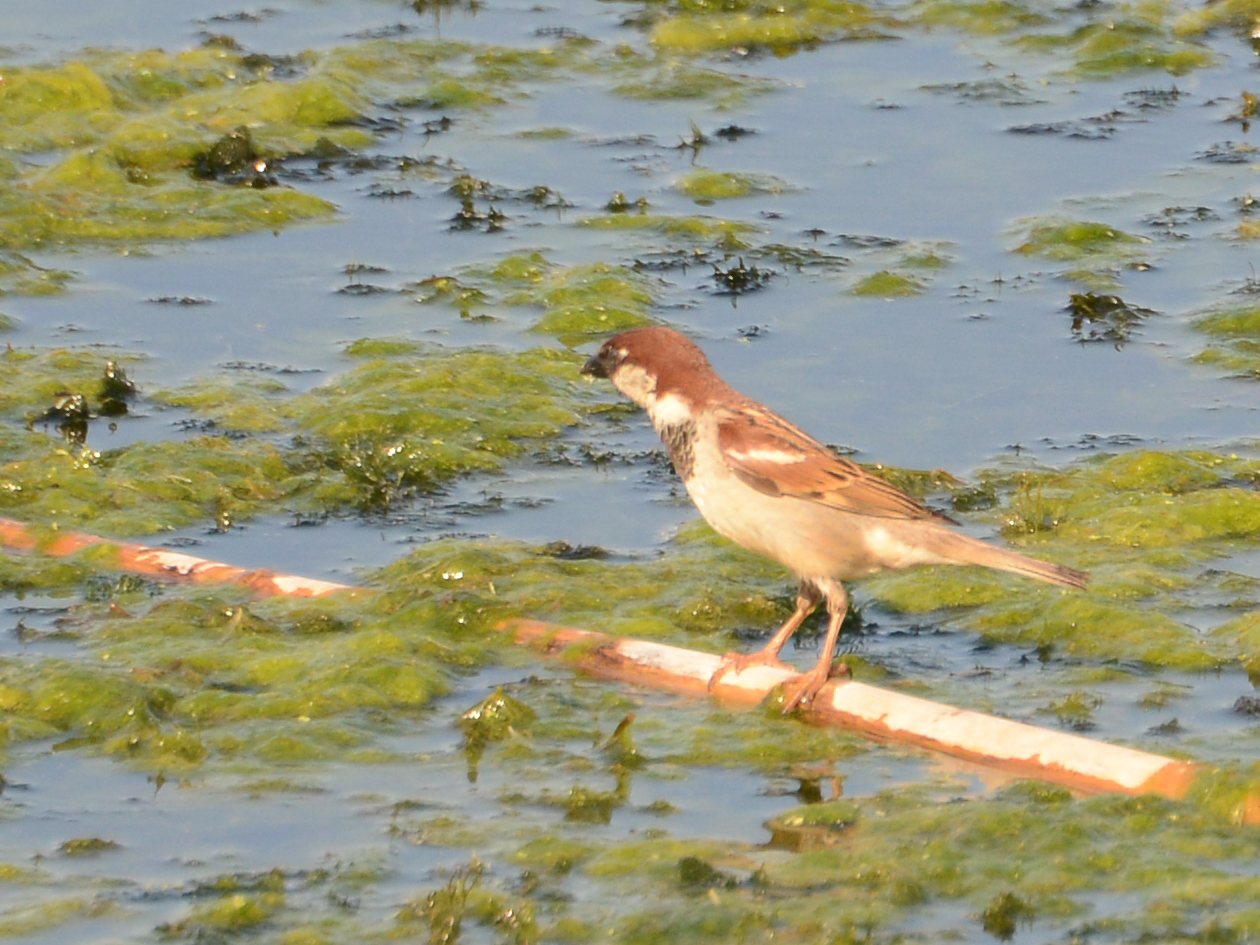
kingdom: Animalia
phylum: Chordata
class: Aves
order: Passeriformes
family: Passeridae
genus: Passer
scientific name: Passer italiae
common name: Italian sparrow
